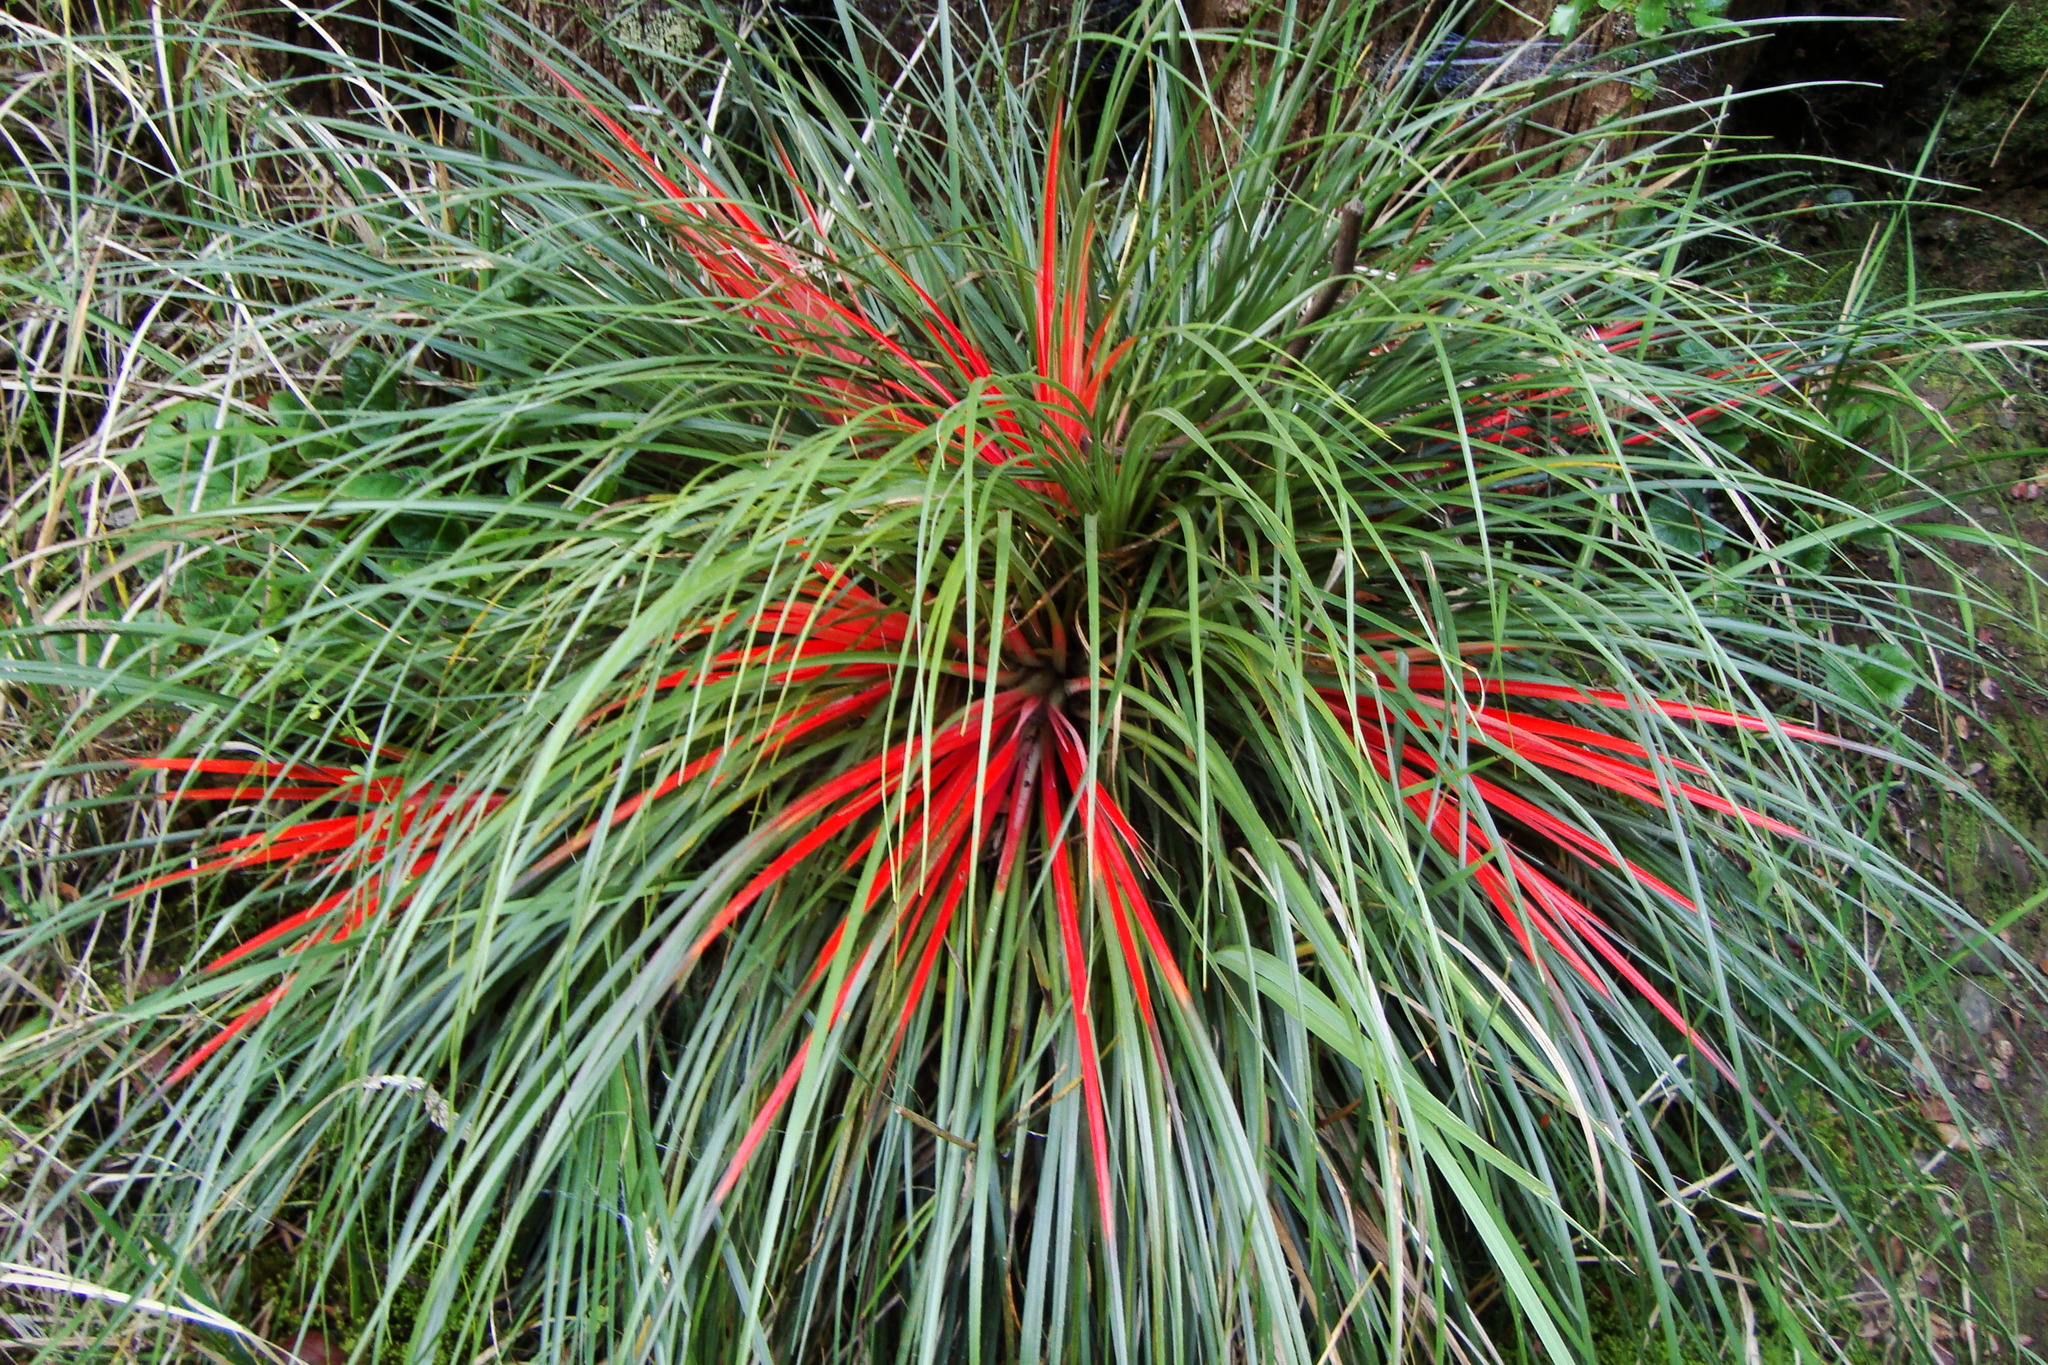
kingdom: Plantae
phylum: Tracheophyta
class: Liliopsida
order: Poales
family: Bromeliaceae
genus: Fascicularia
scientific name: Fascicularia bicolor
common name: Rhodostachys
